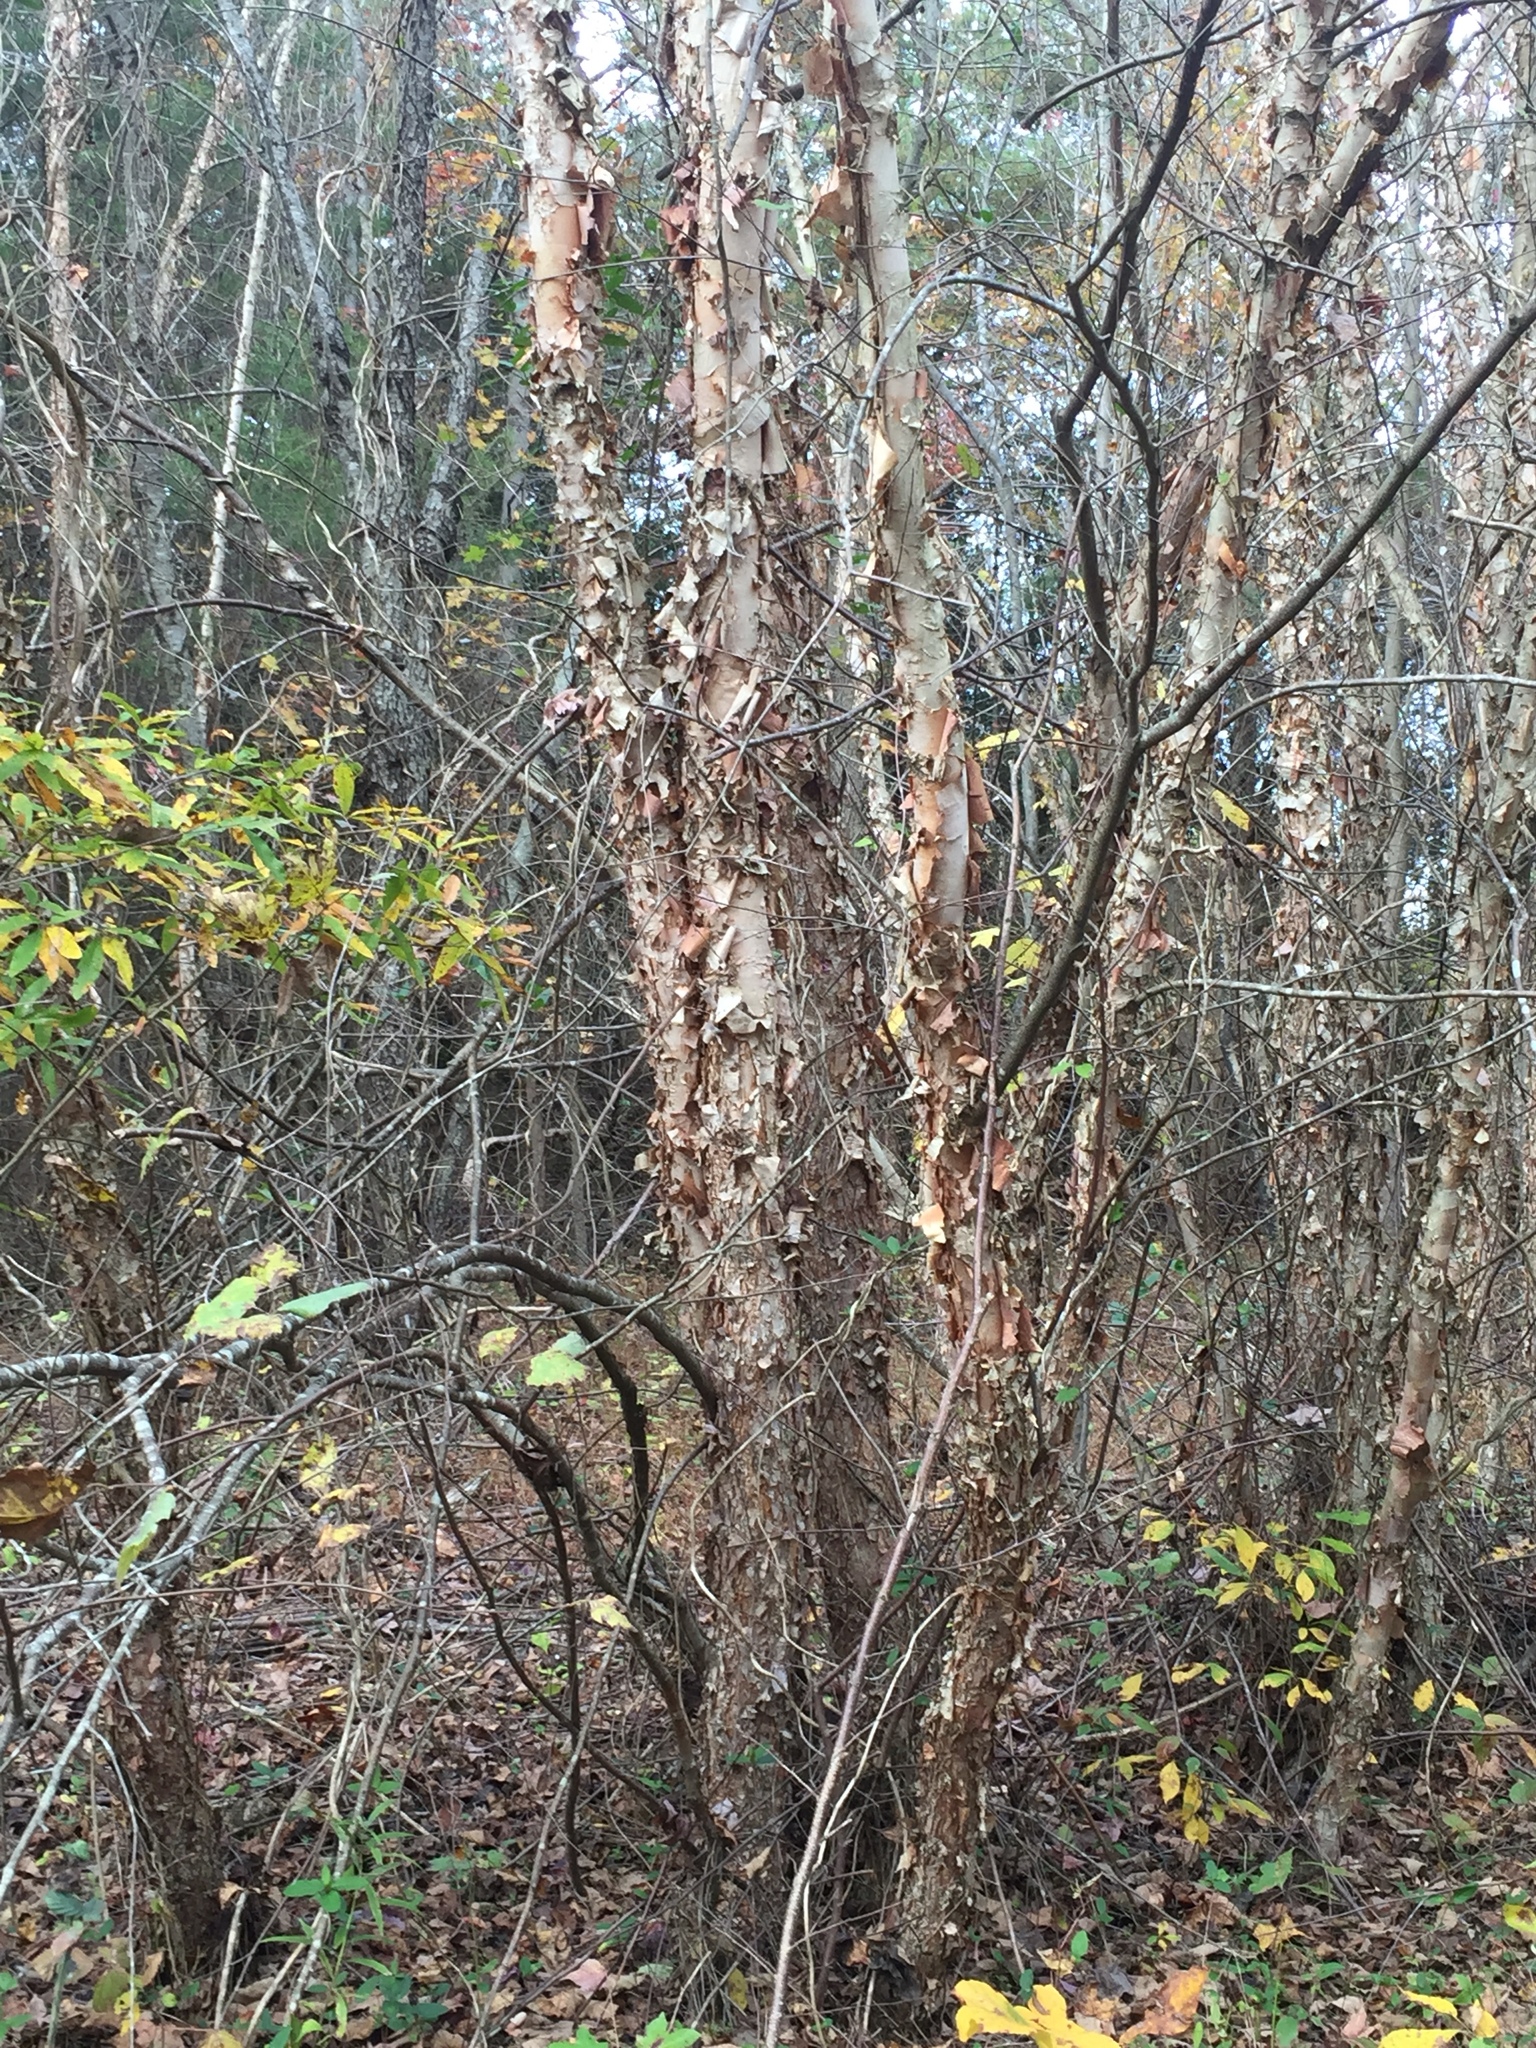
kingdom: Plantae
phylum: Tracheophyta
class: Magnoliopsida
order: Fagales
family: Betulaceae
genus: Betula
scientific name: Betula nigra
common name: Black birch
